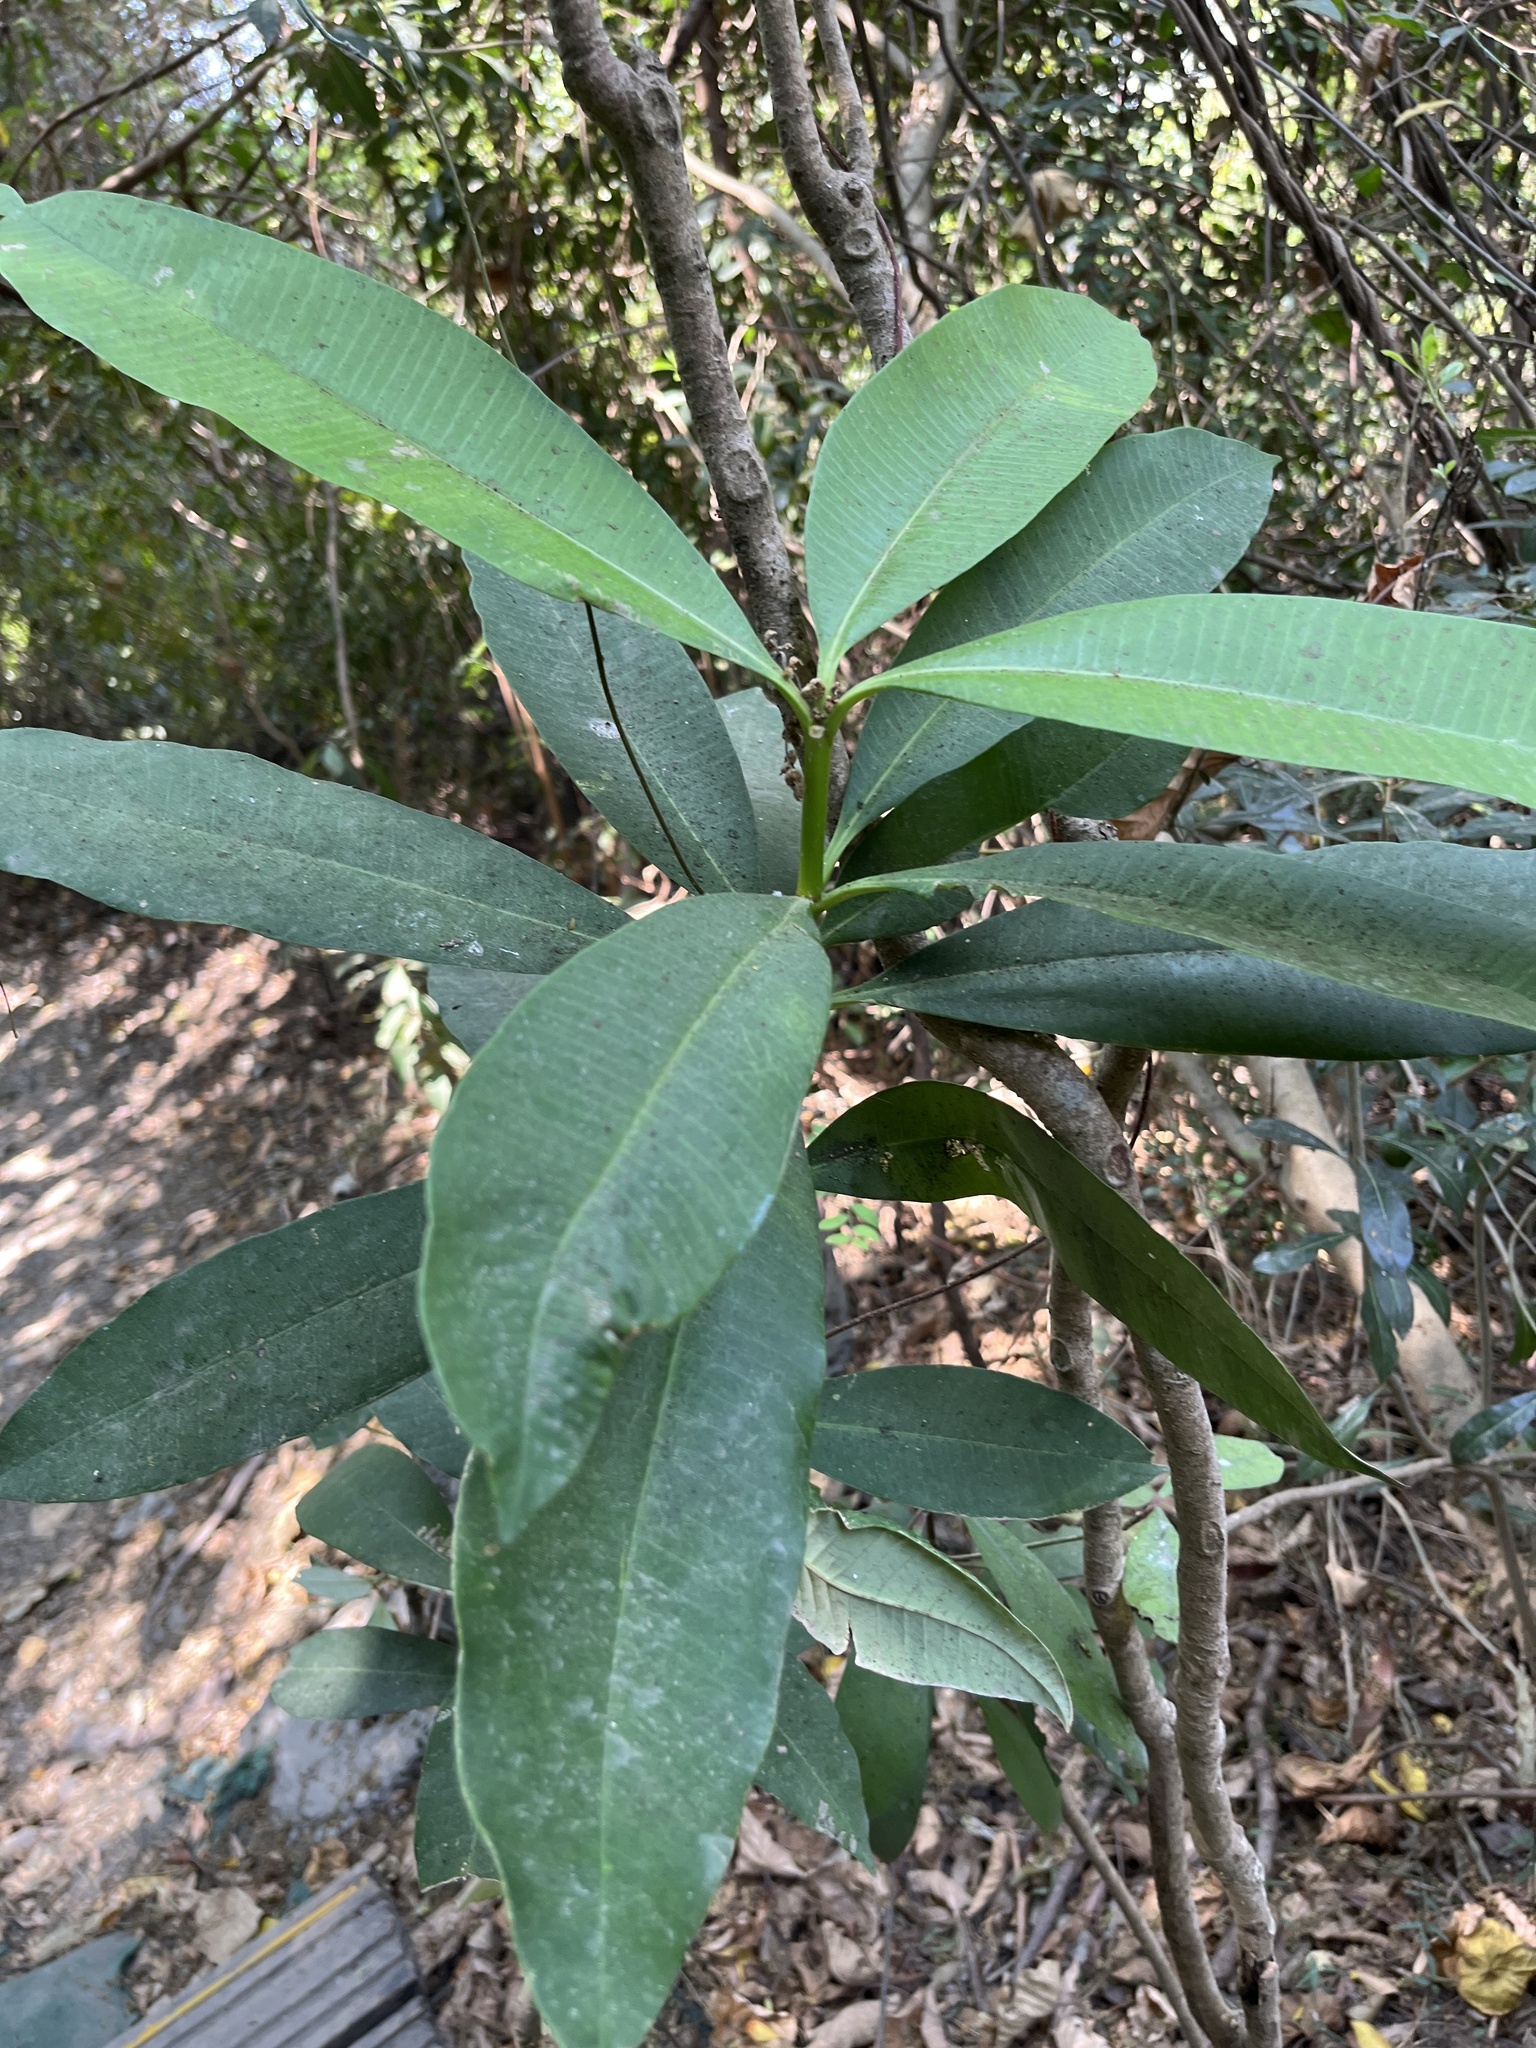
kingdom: Plantae
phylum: Tracheophyta
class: Magnoliopsida
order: Gentianales
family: Apocynaceae
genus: Alstonia
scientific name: Alstonia scholaris
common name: White cheesewood
